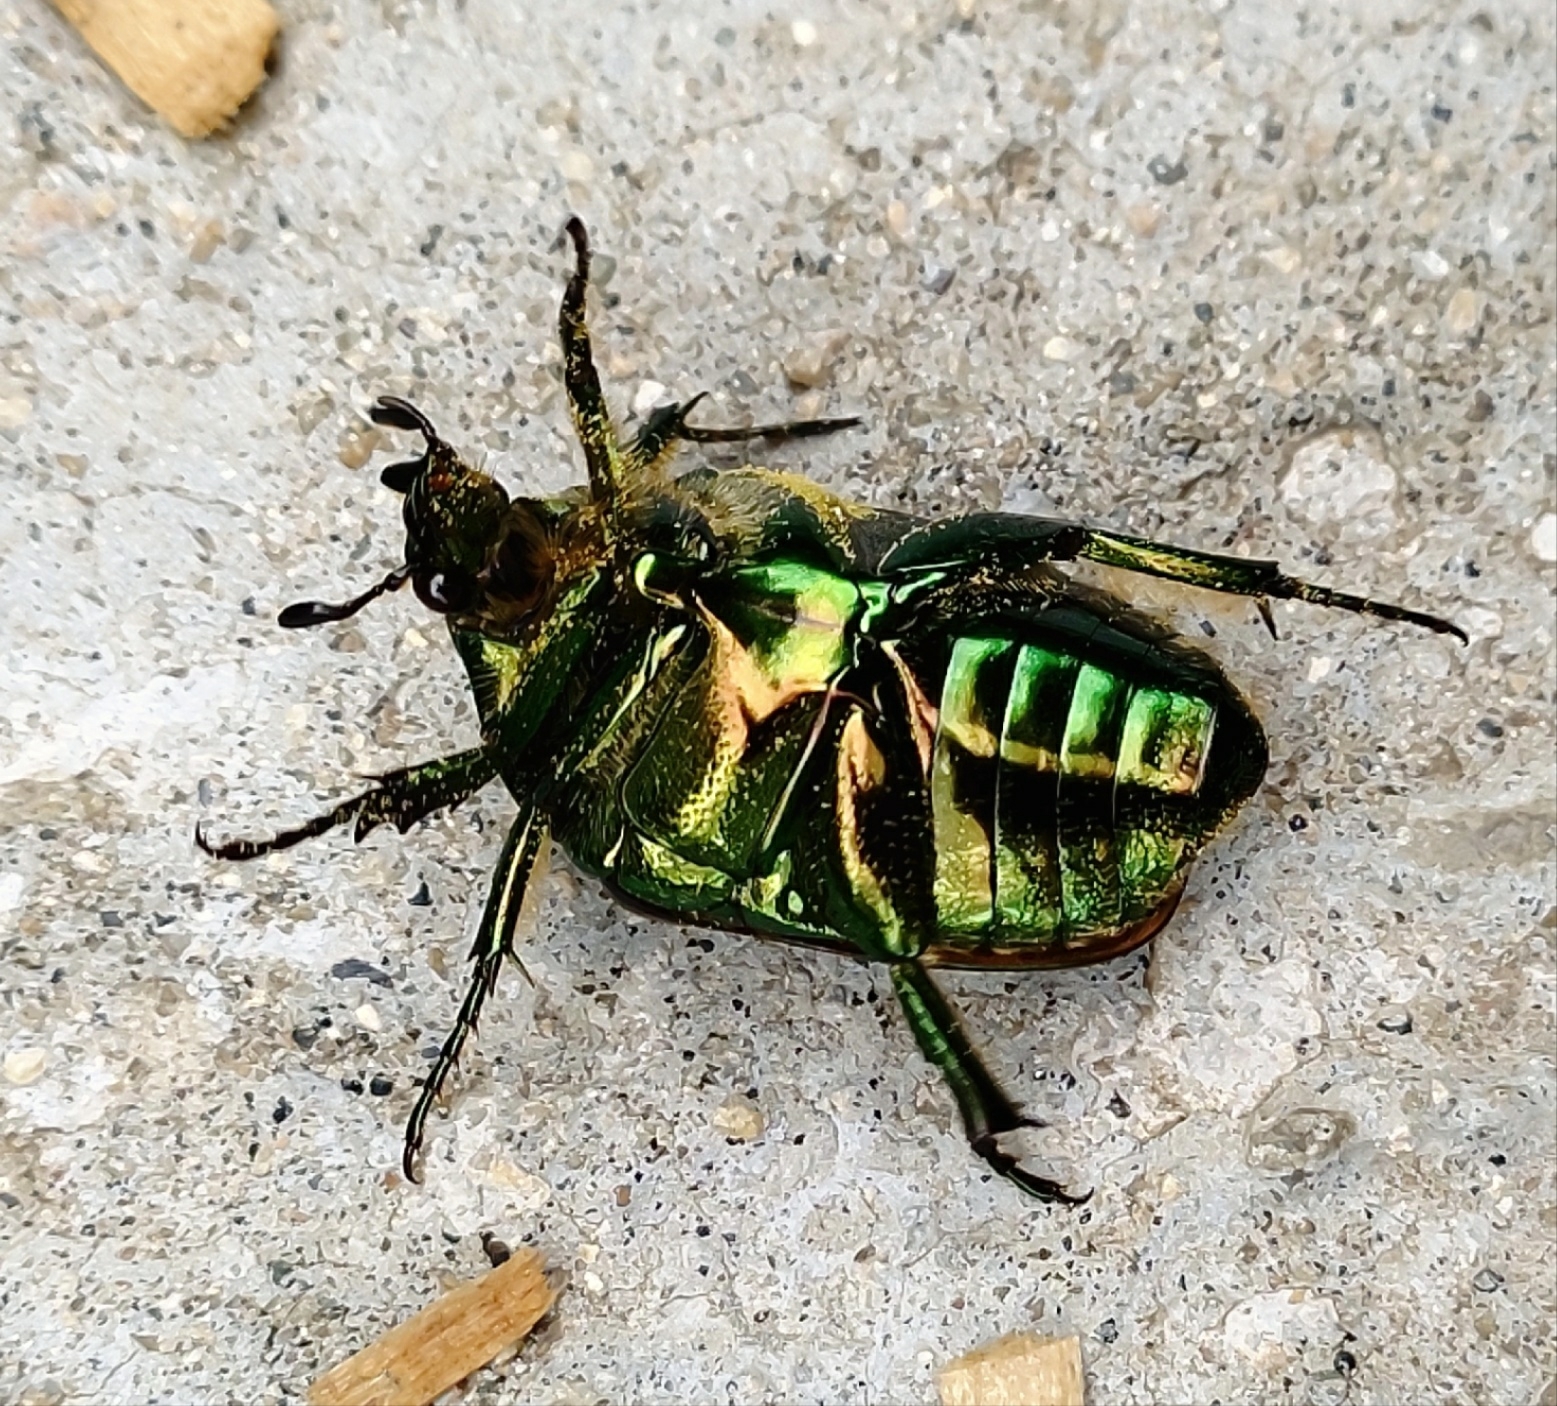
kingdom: Animalia
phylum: Arthropoda
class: Insecta
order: Coleoptera
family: Scarabaeidae
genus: Cotinis
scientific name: Cotinis mutabilis
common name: Figeater beetle
